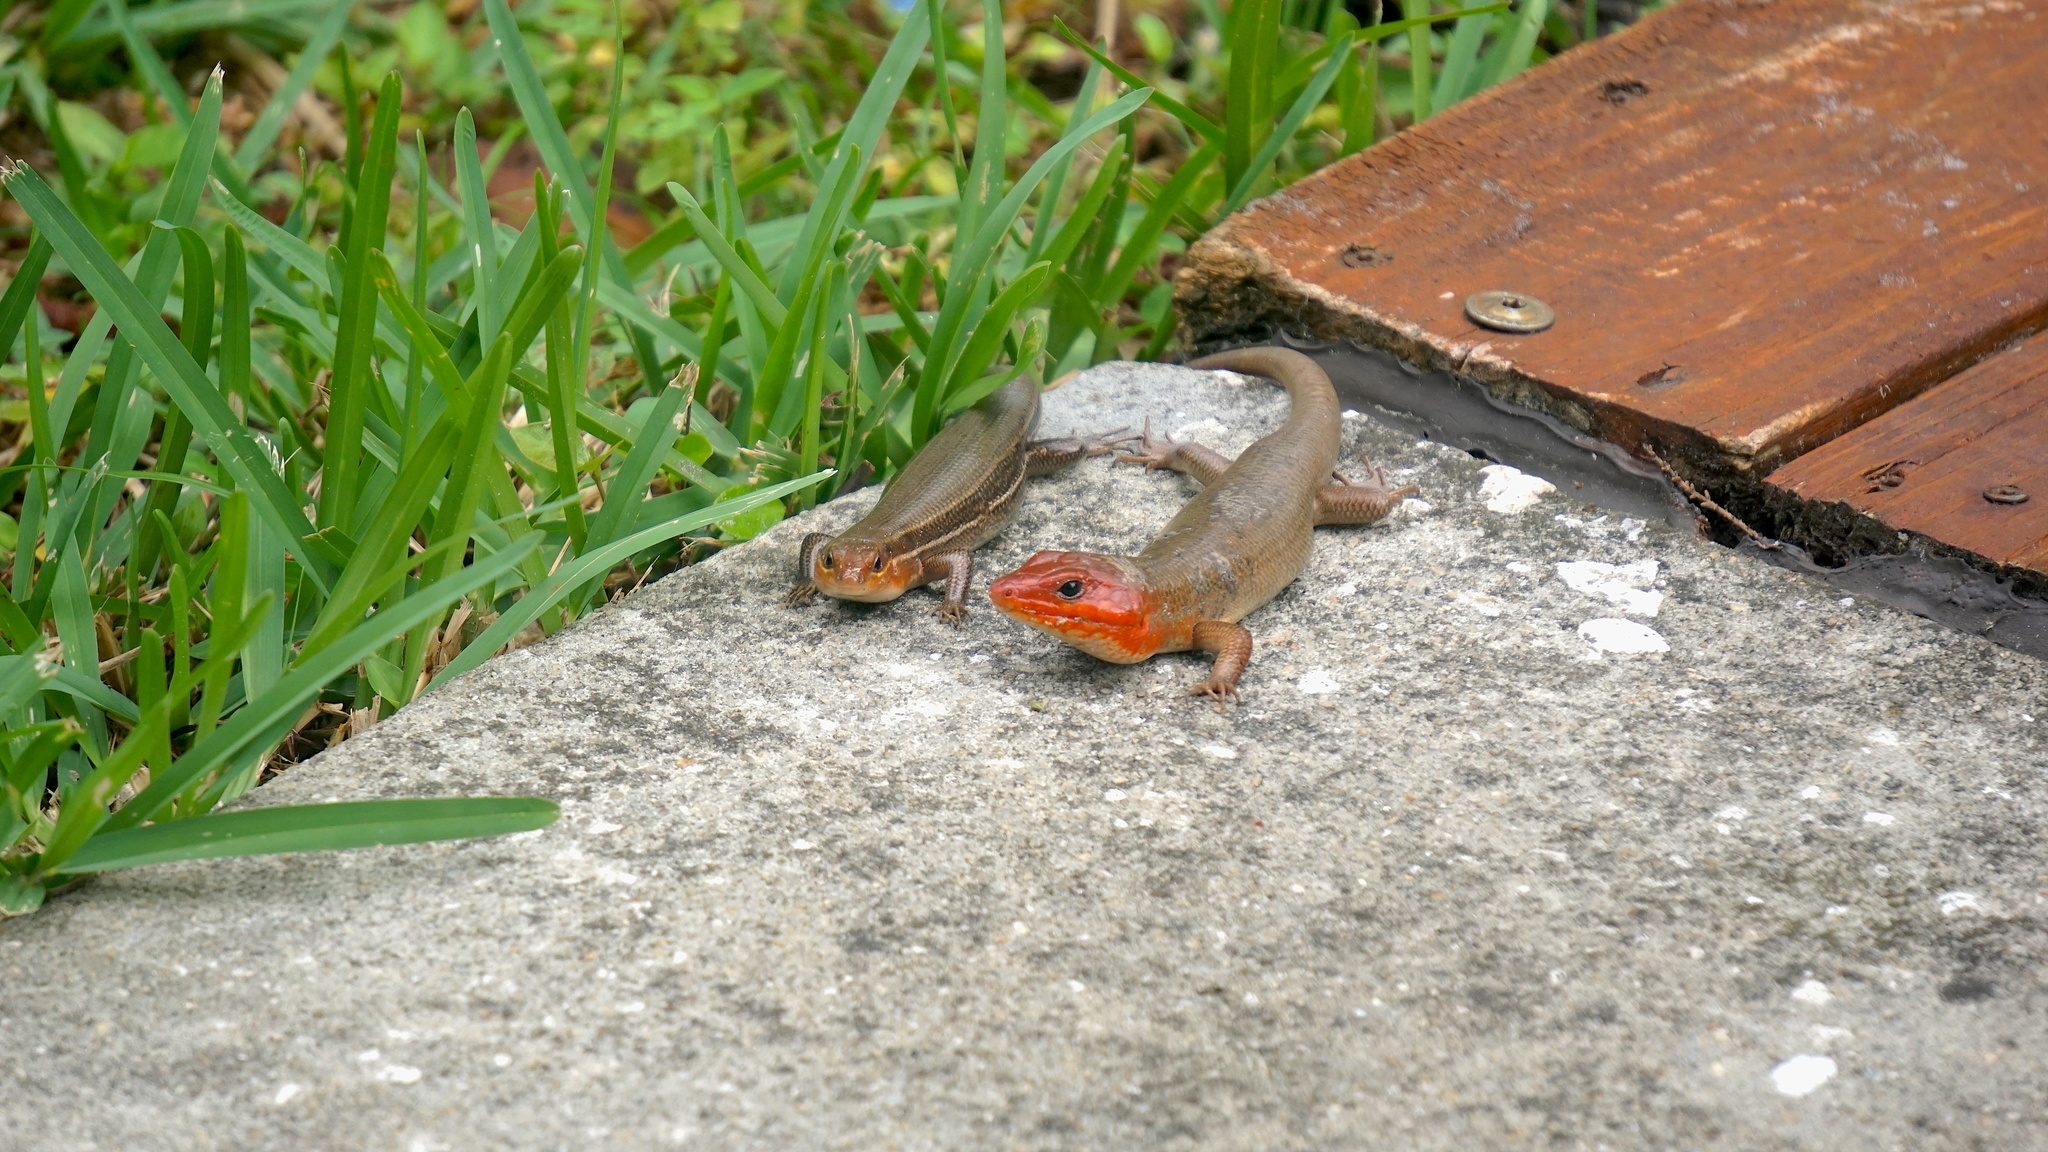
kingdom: Animalia
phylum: Chordata
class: Squamata
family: Scincidae
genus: Plestiodon
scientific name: Plestiodon laticeps
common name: Broadhead skink
